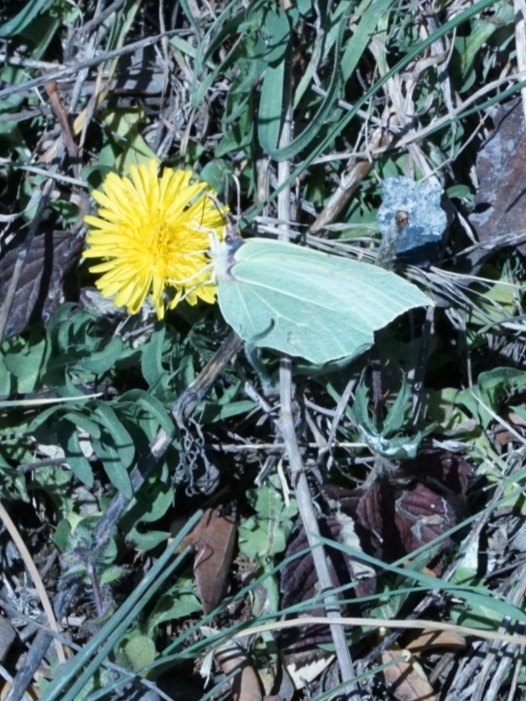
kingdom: Animalia
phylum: Arthropoda
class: Insecta
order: Lepidoptera
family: Pieridae
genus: Gonepteryx
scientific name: Gonepteryx rhamni
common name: Brimstone
